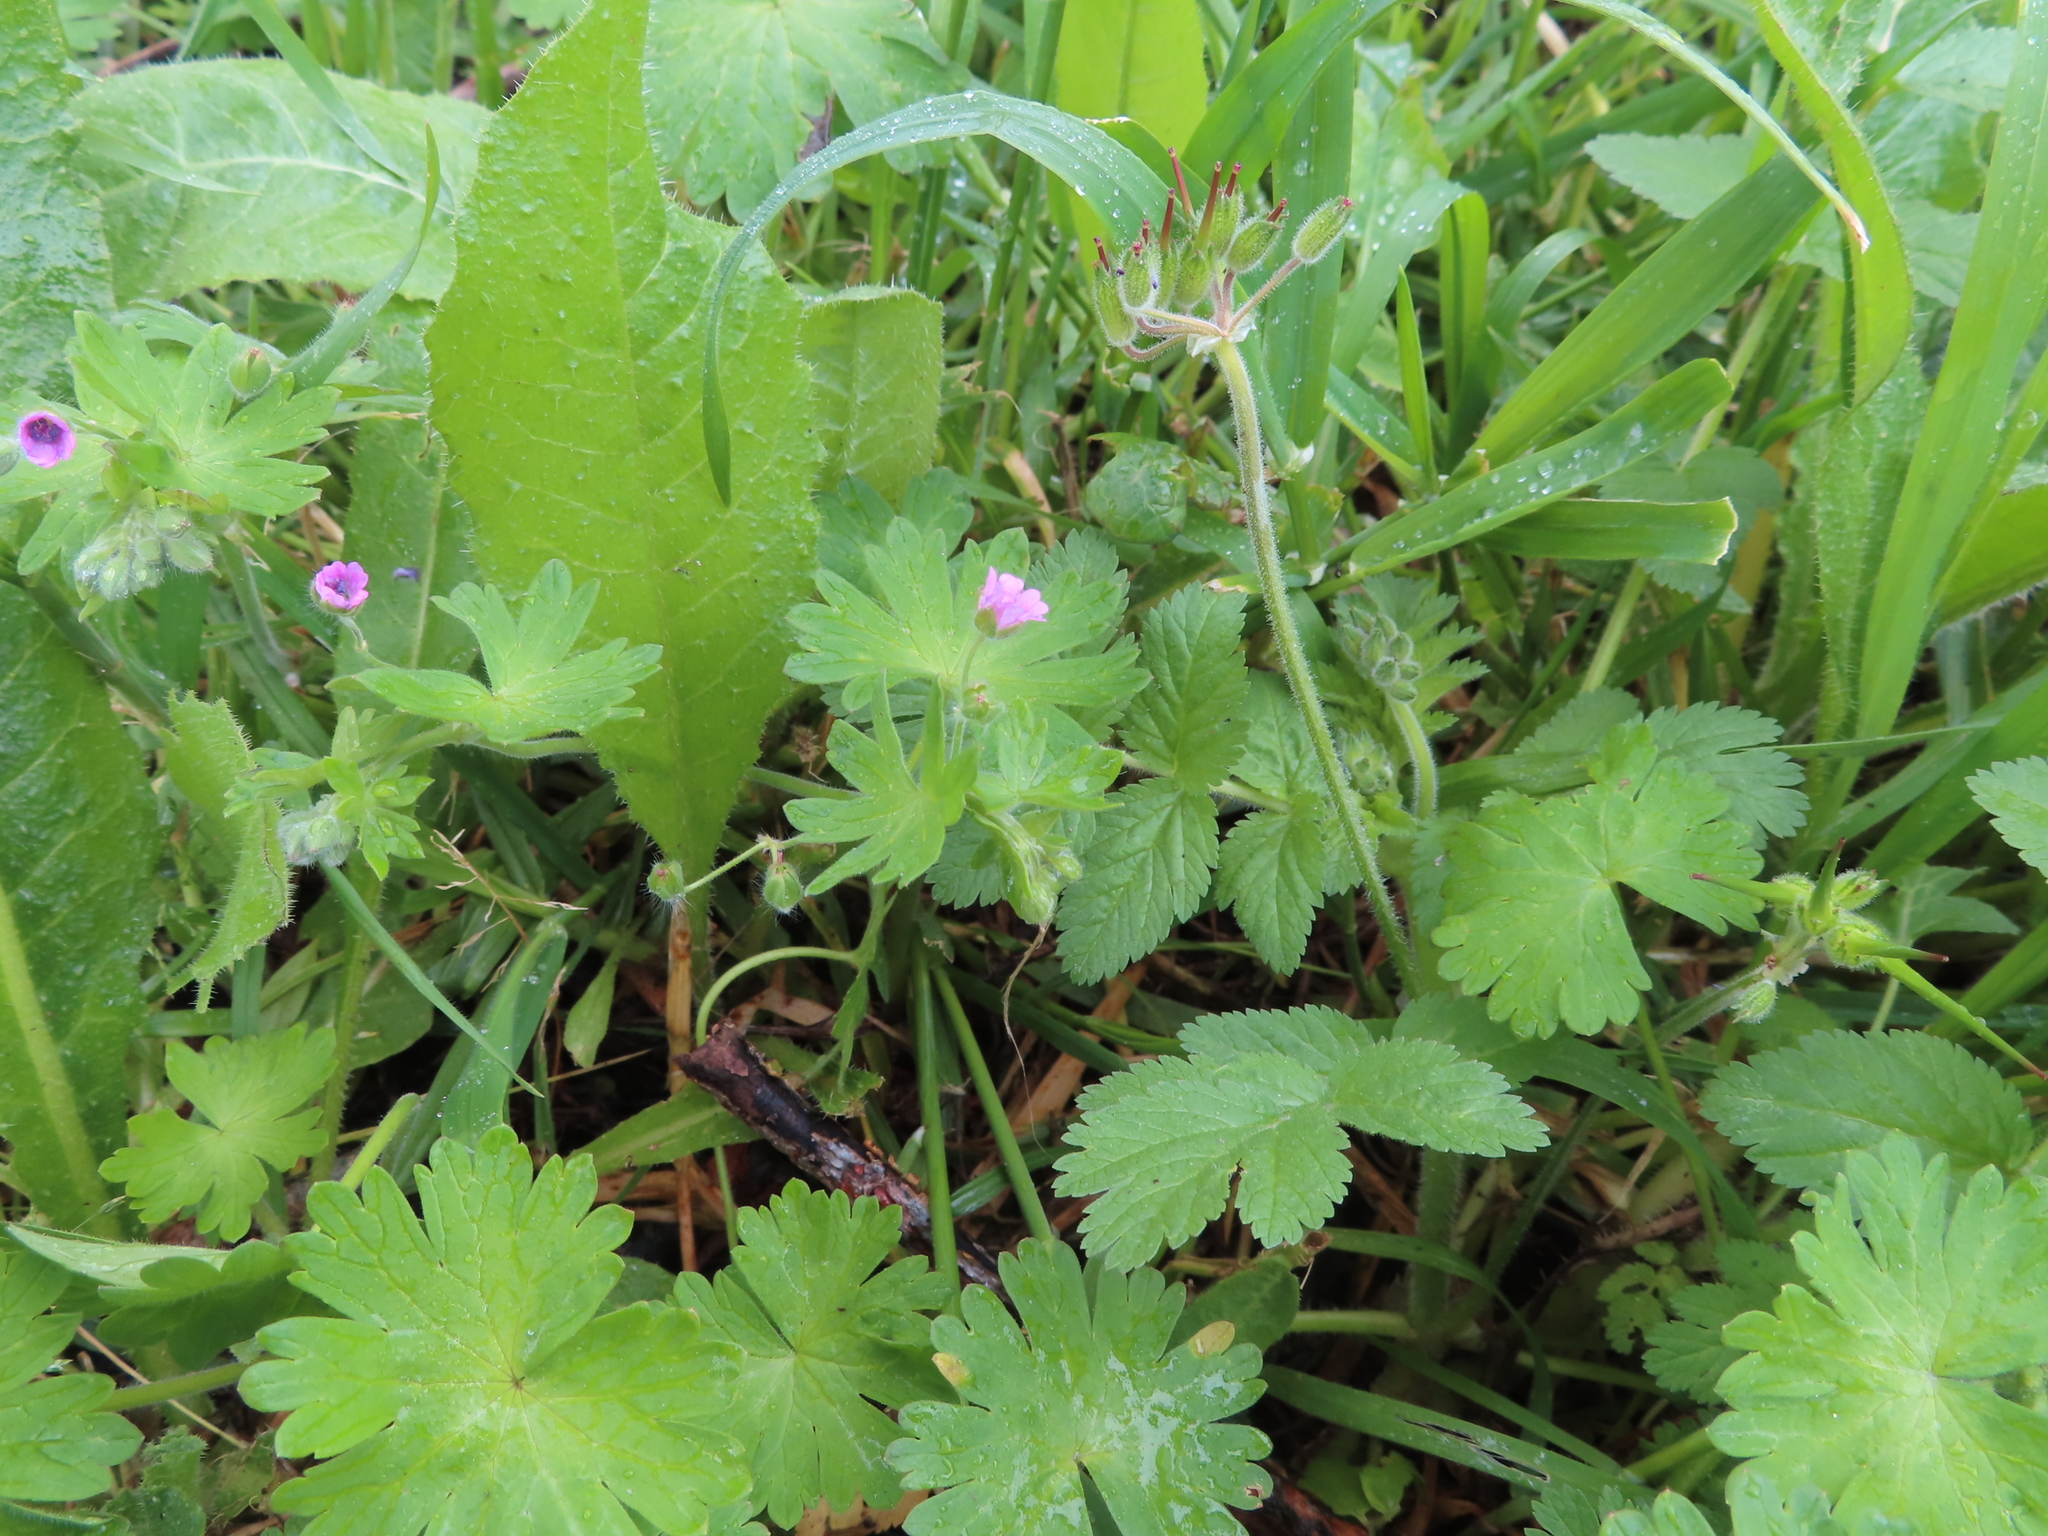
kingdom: Plantae
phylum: Tracheophyta
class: Magnoliopsida
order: Geraniales
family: Geraniaceae
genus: Geranium
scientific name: Geranium molle
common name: Dove's-foot crane's-bill
